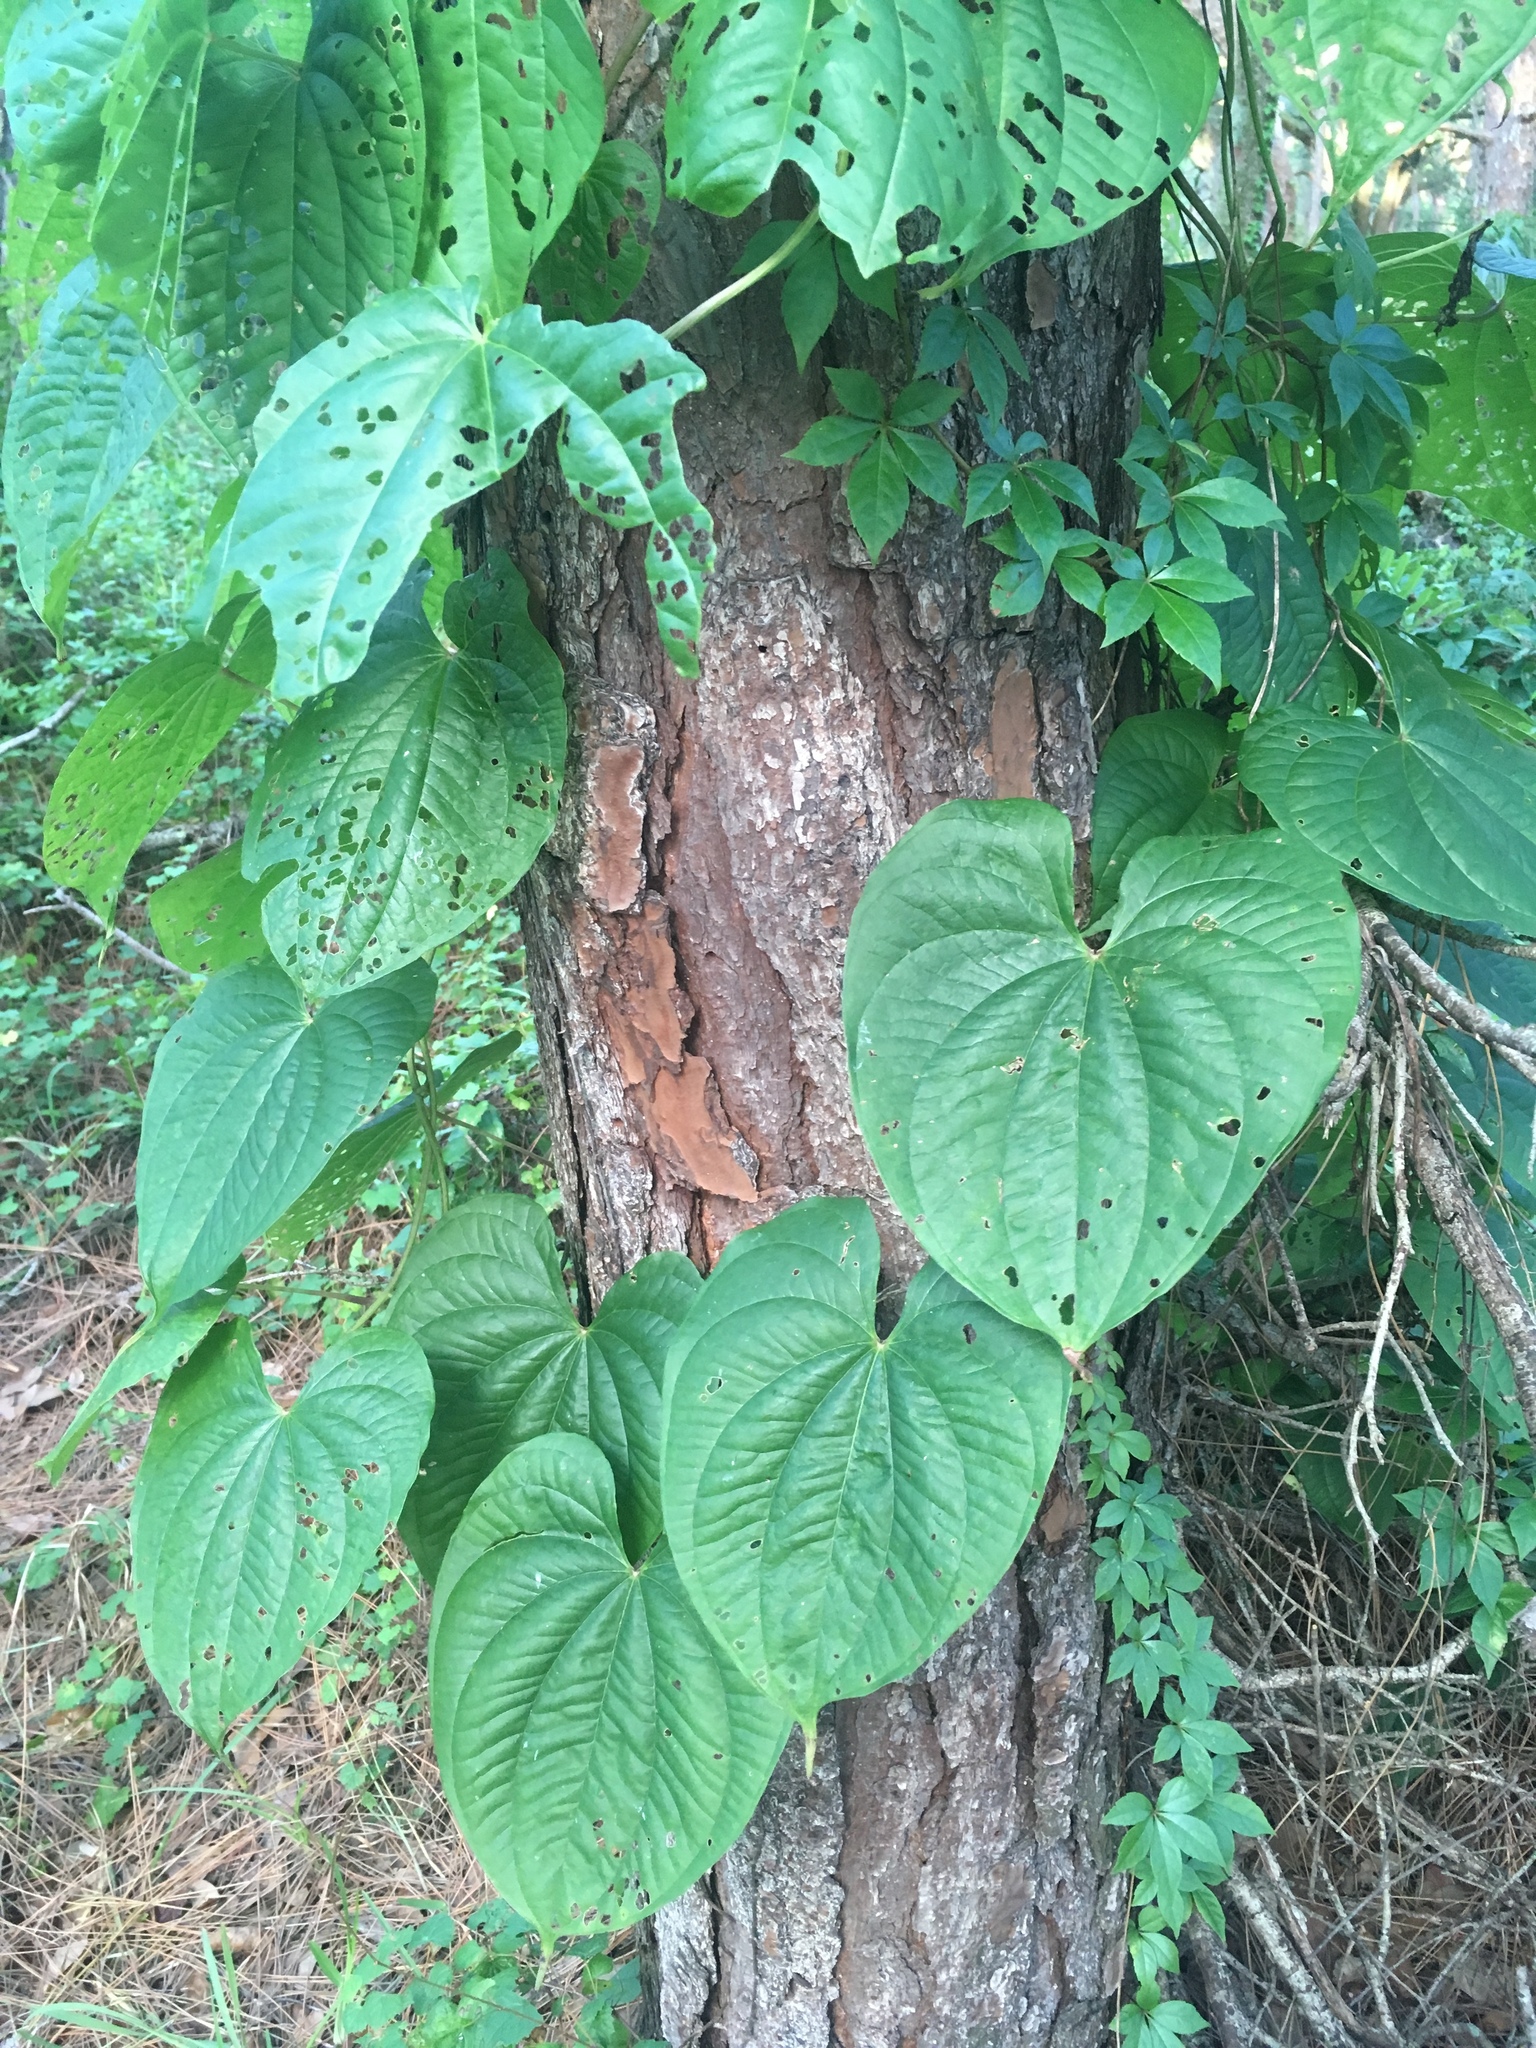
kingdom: Plantae
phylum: Tracheophyta
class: Liliopsida
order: Dioscoreales
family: Dioscoreaceae
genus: Dioscorea
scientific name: Dioscorea bulbifera
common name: Air yam
